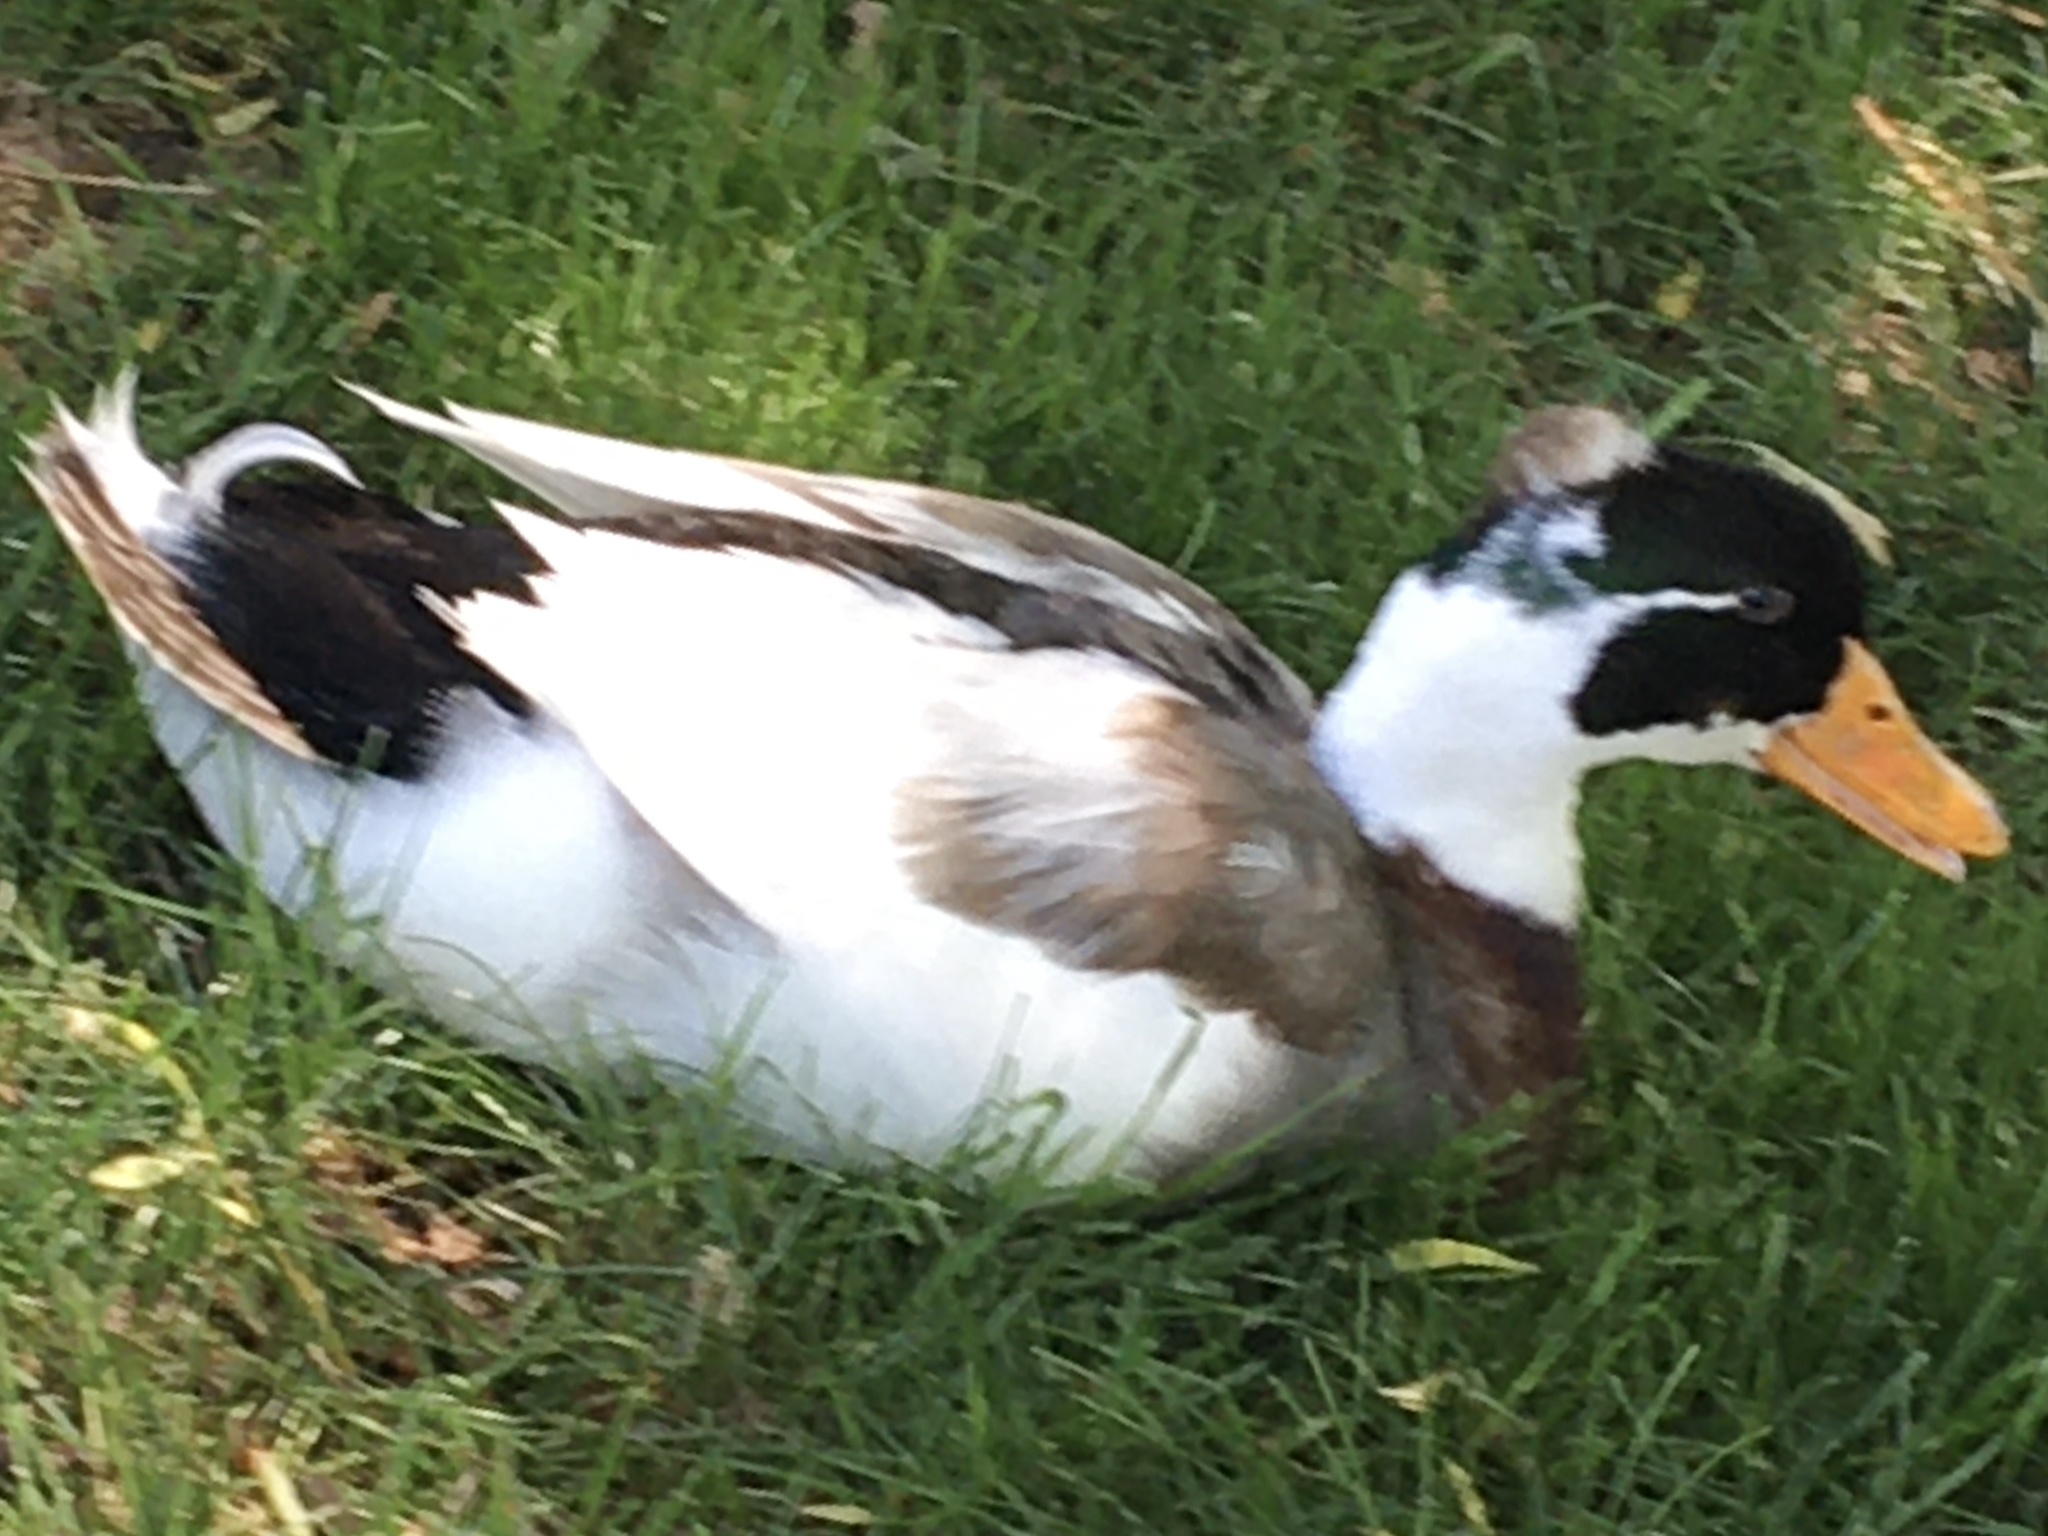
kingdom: Animalia
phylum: Chordata
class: Aves
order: Anseriformes
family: Anatidae
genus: Anas
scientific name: Anas platyrhynchos
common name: Mallard
